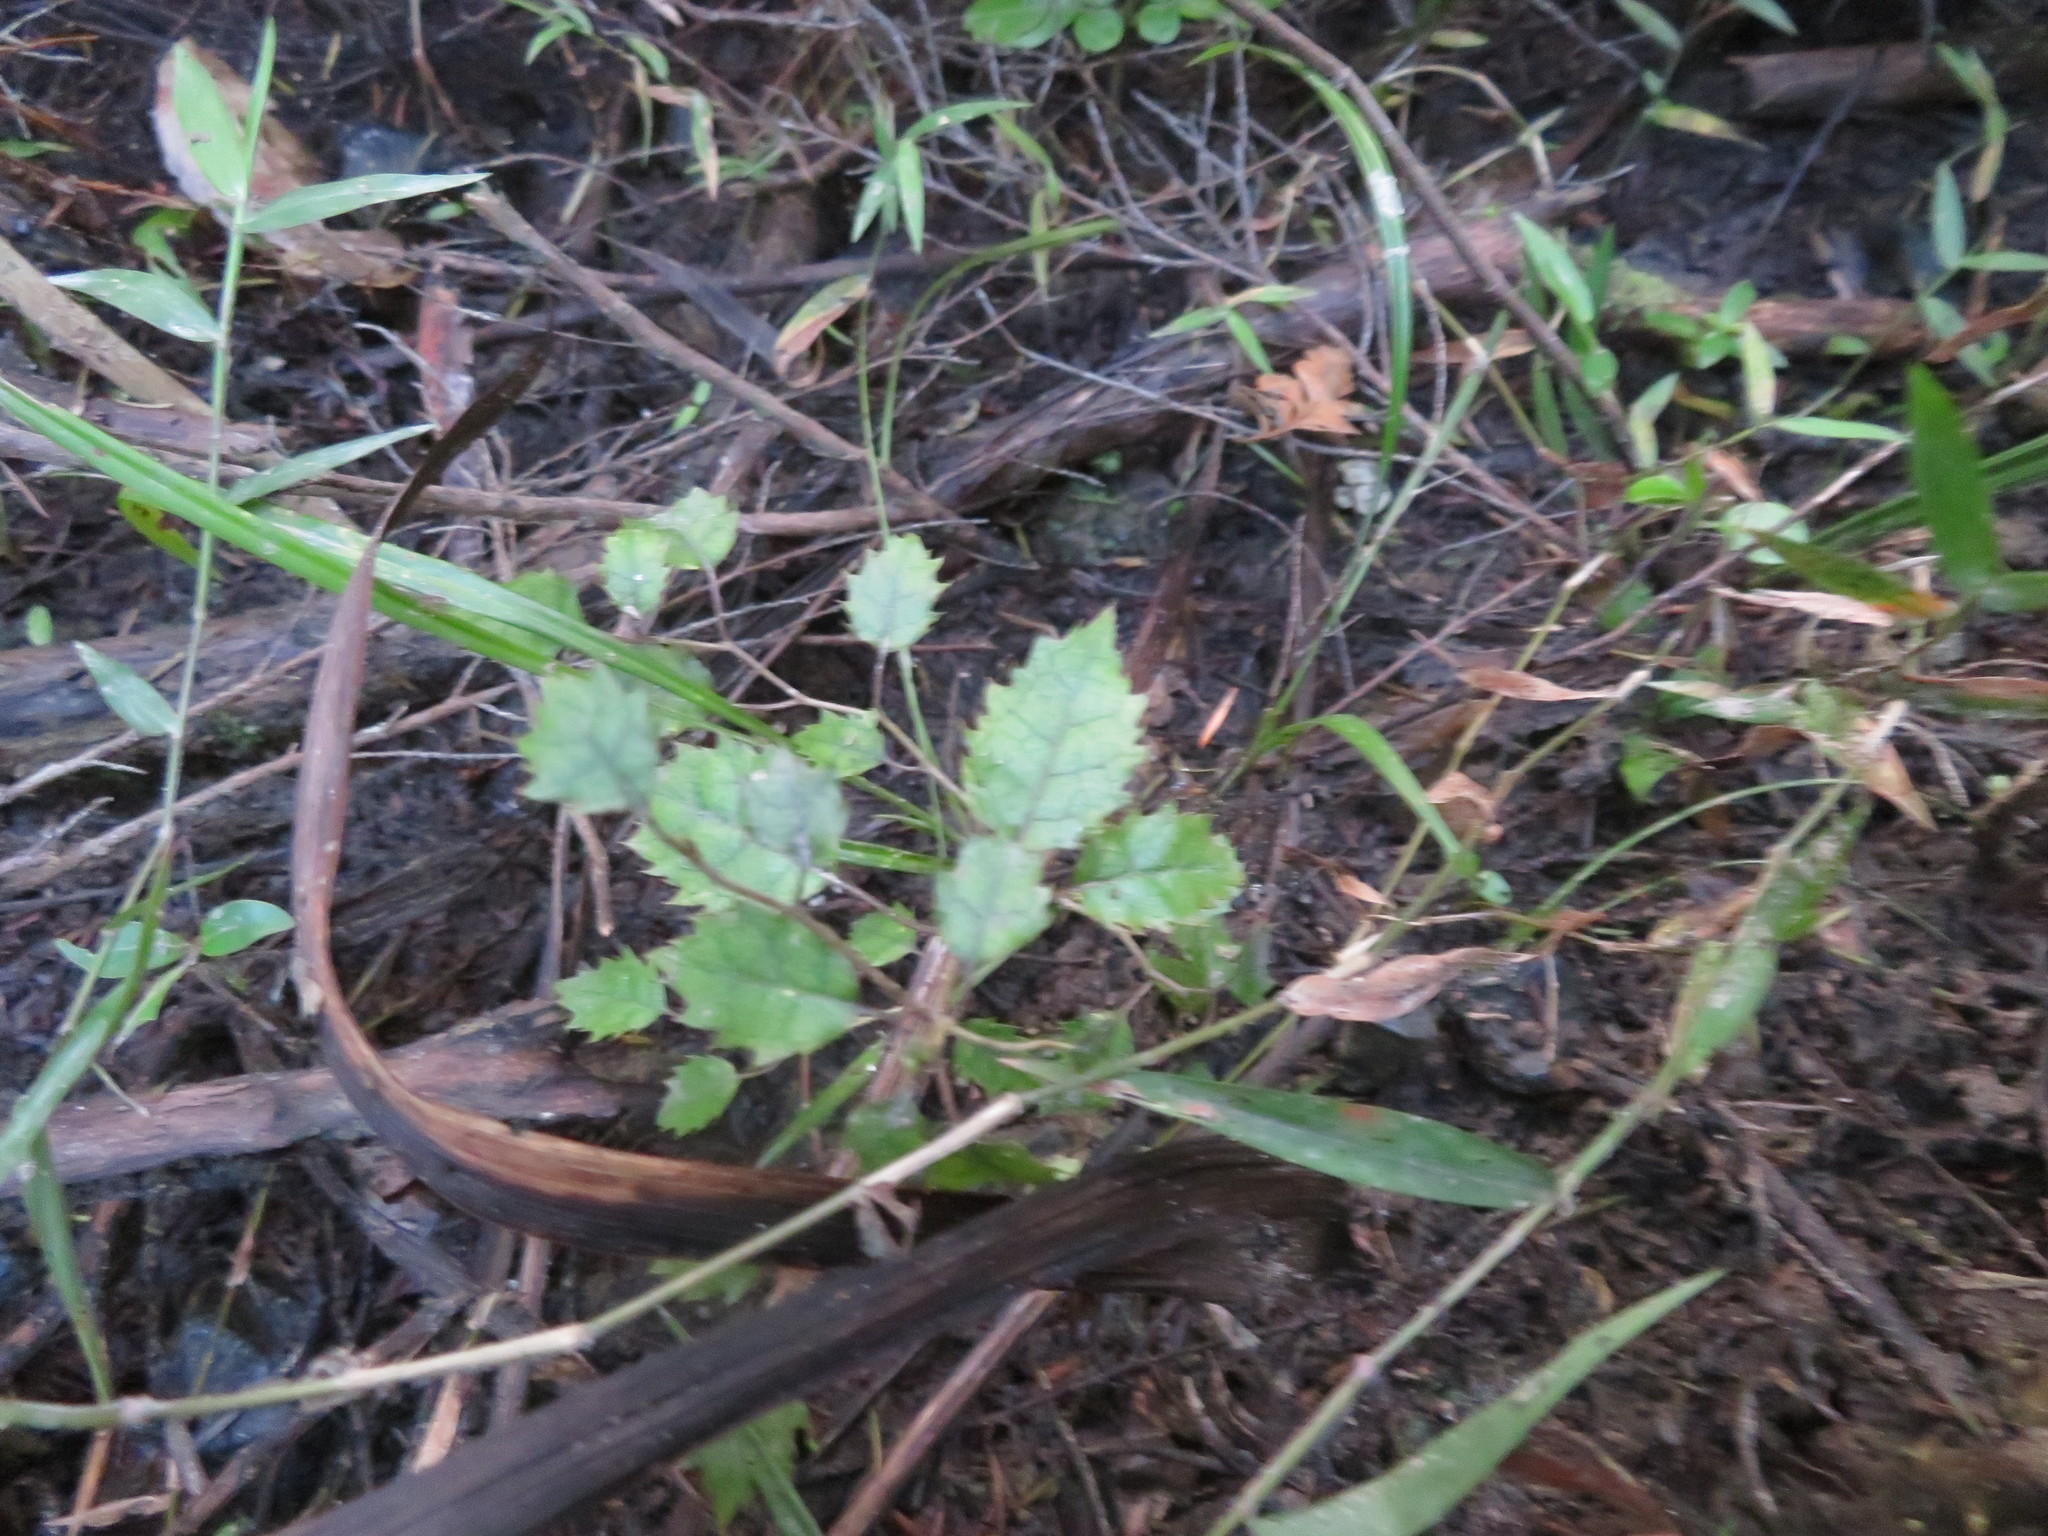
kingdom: Plantae
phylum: Tracheophyta
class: Magnoliopsida
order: Asterales
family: Rousseaceae
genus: Carpodetus
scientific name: Carpodetus serratus
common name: White mapau
